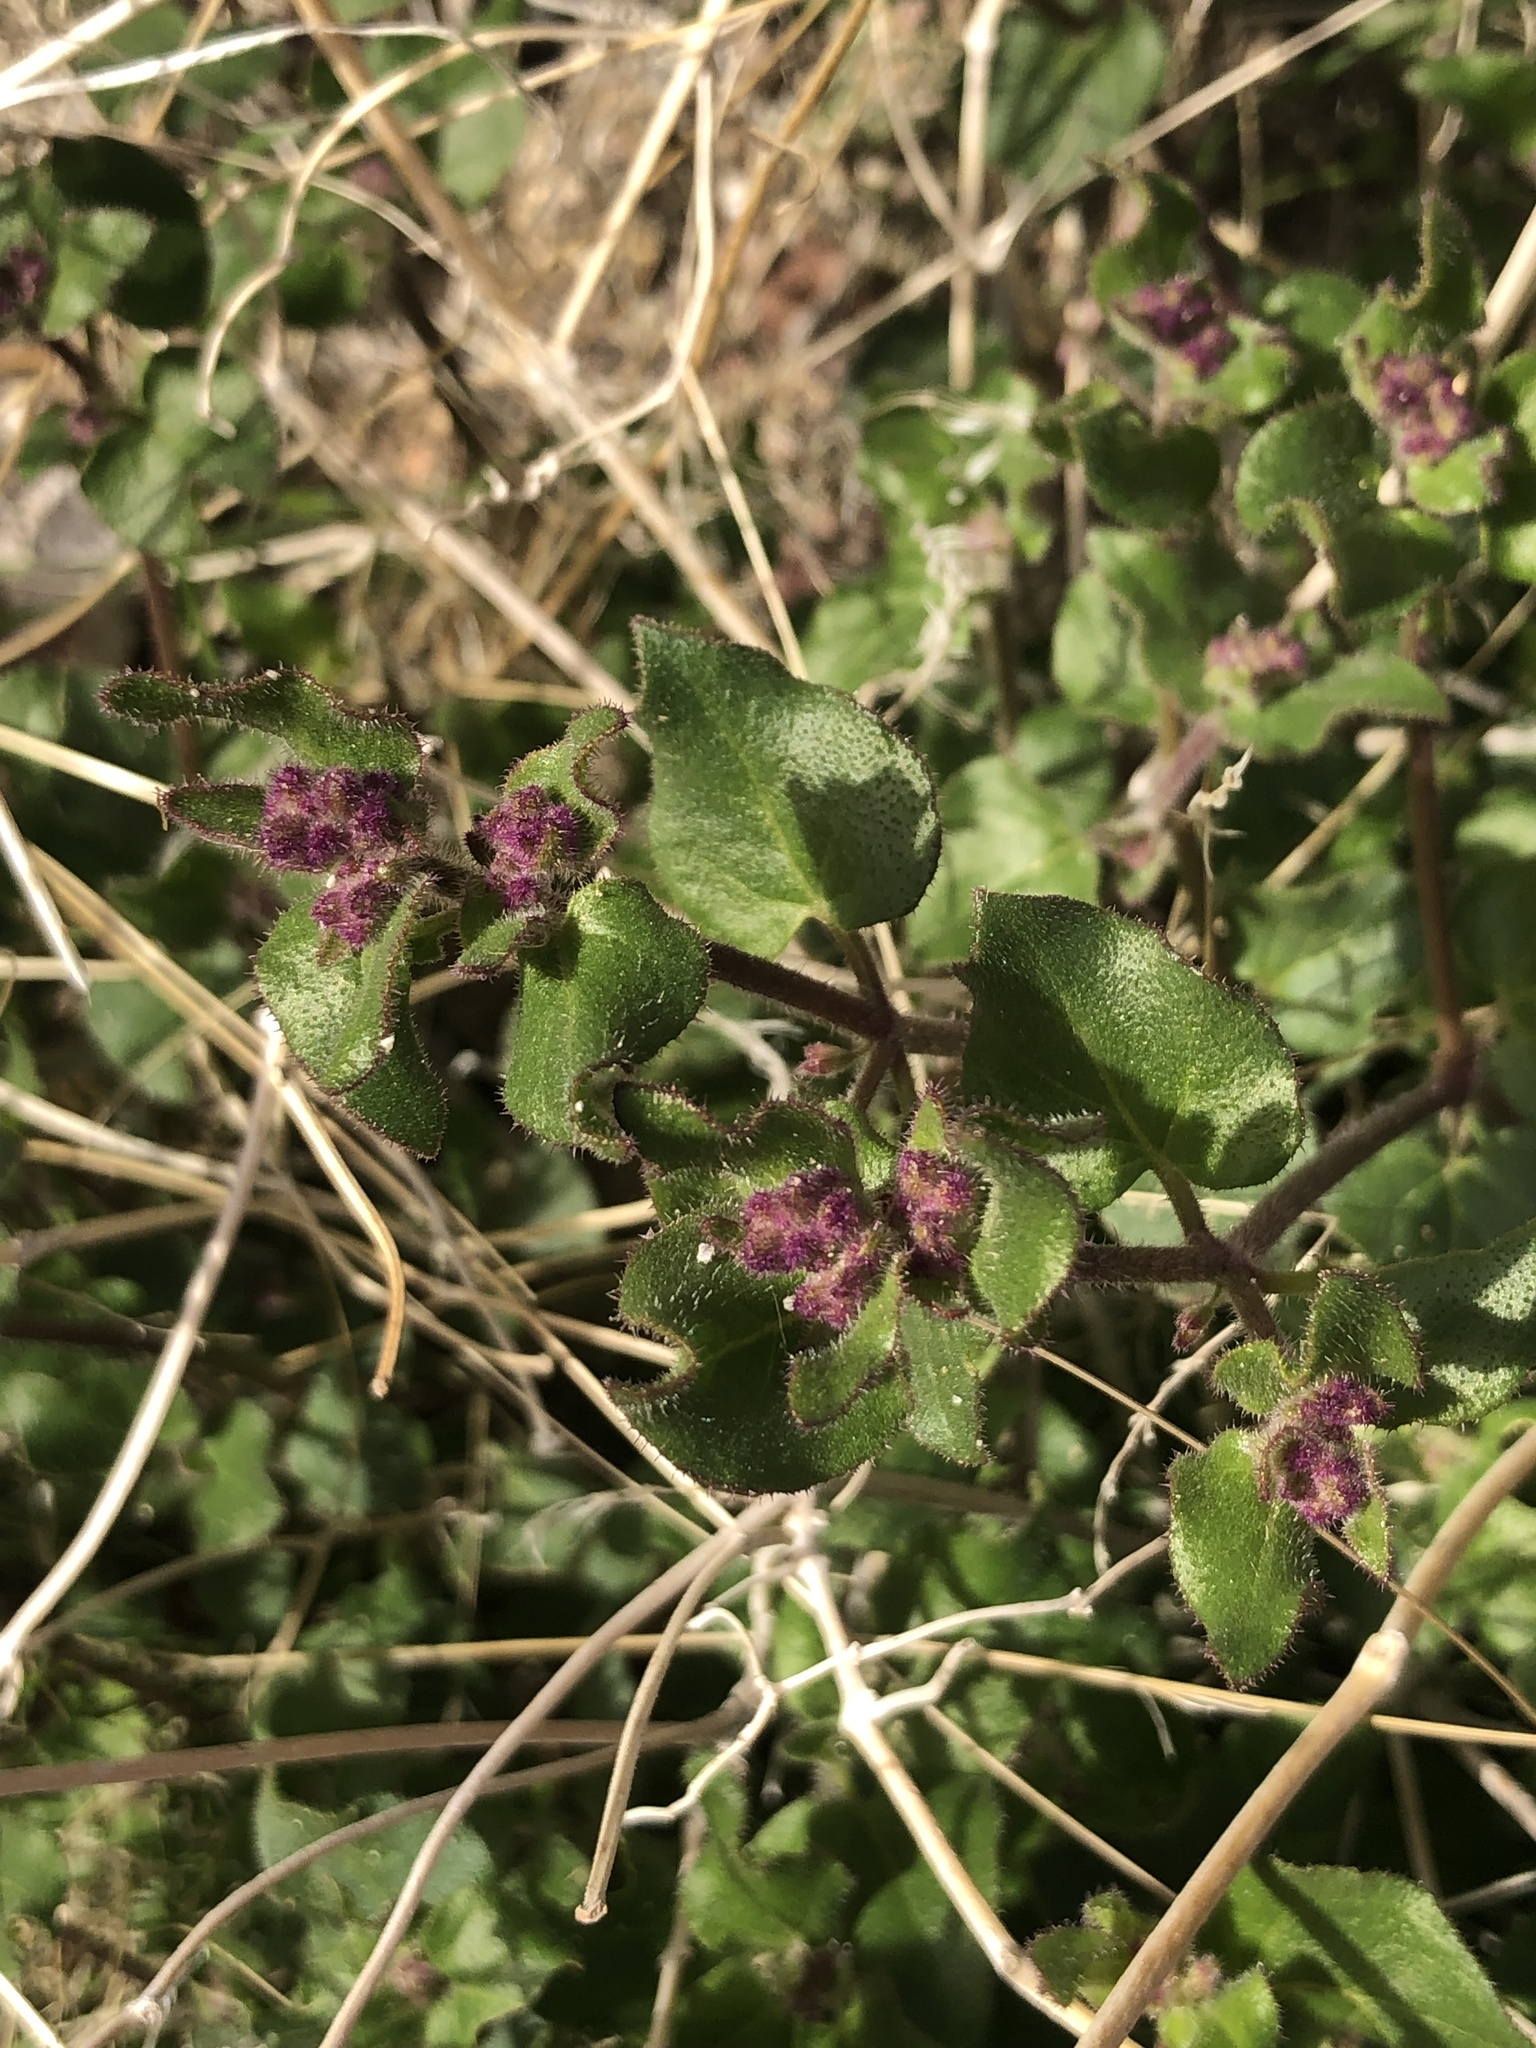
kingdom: Plantae
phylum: Tracheophyta
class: Magnoliopsida
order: Caryophyllales
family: Nyctaginaceae
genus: Mirabilis
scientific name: Mirabilis laevis
